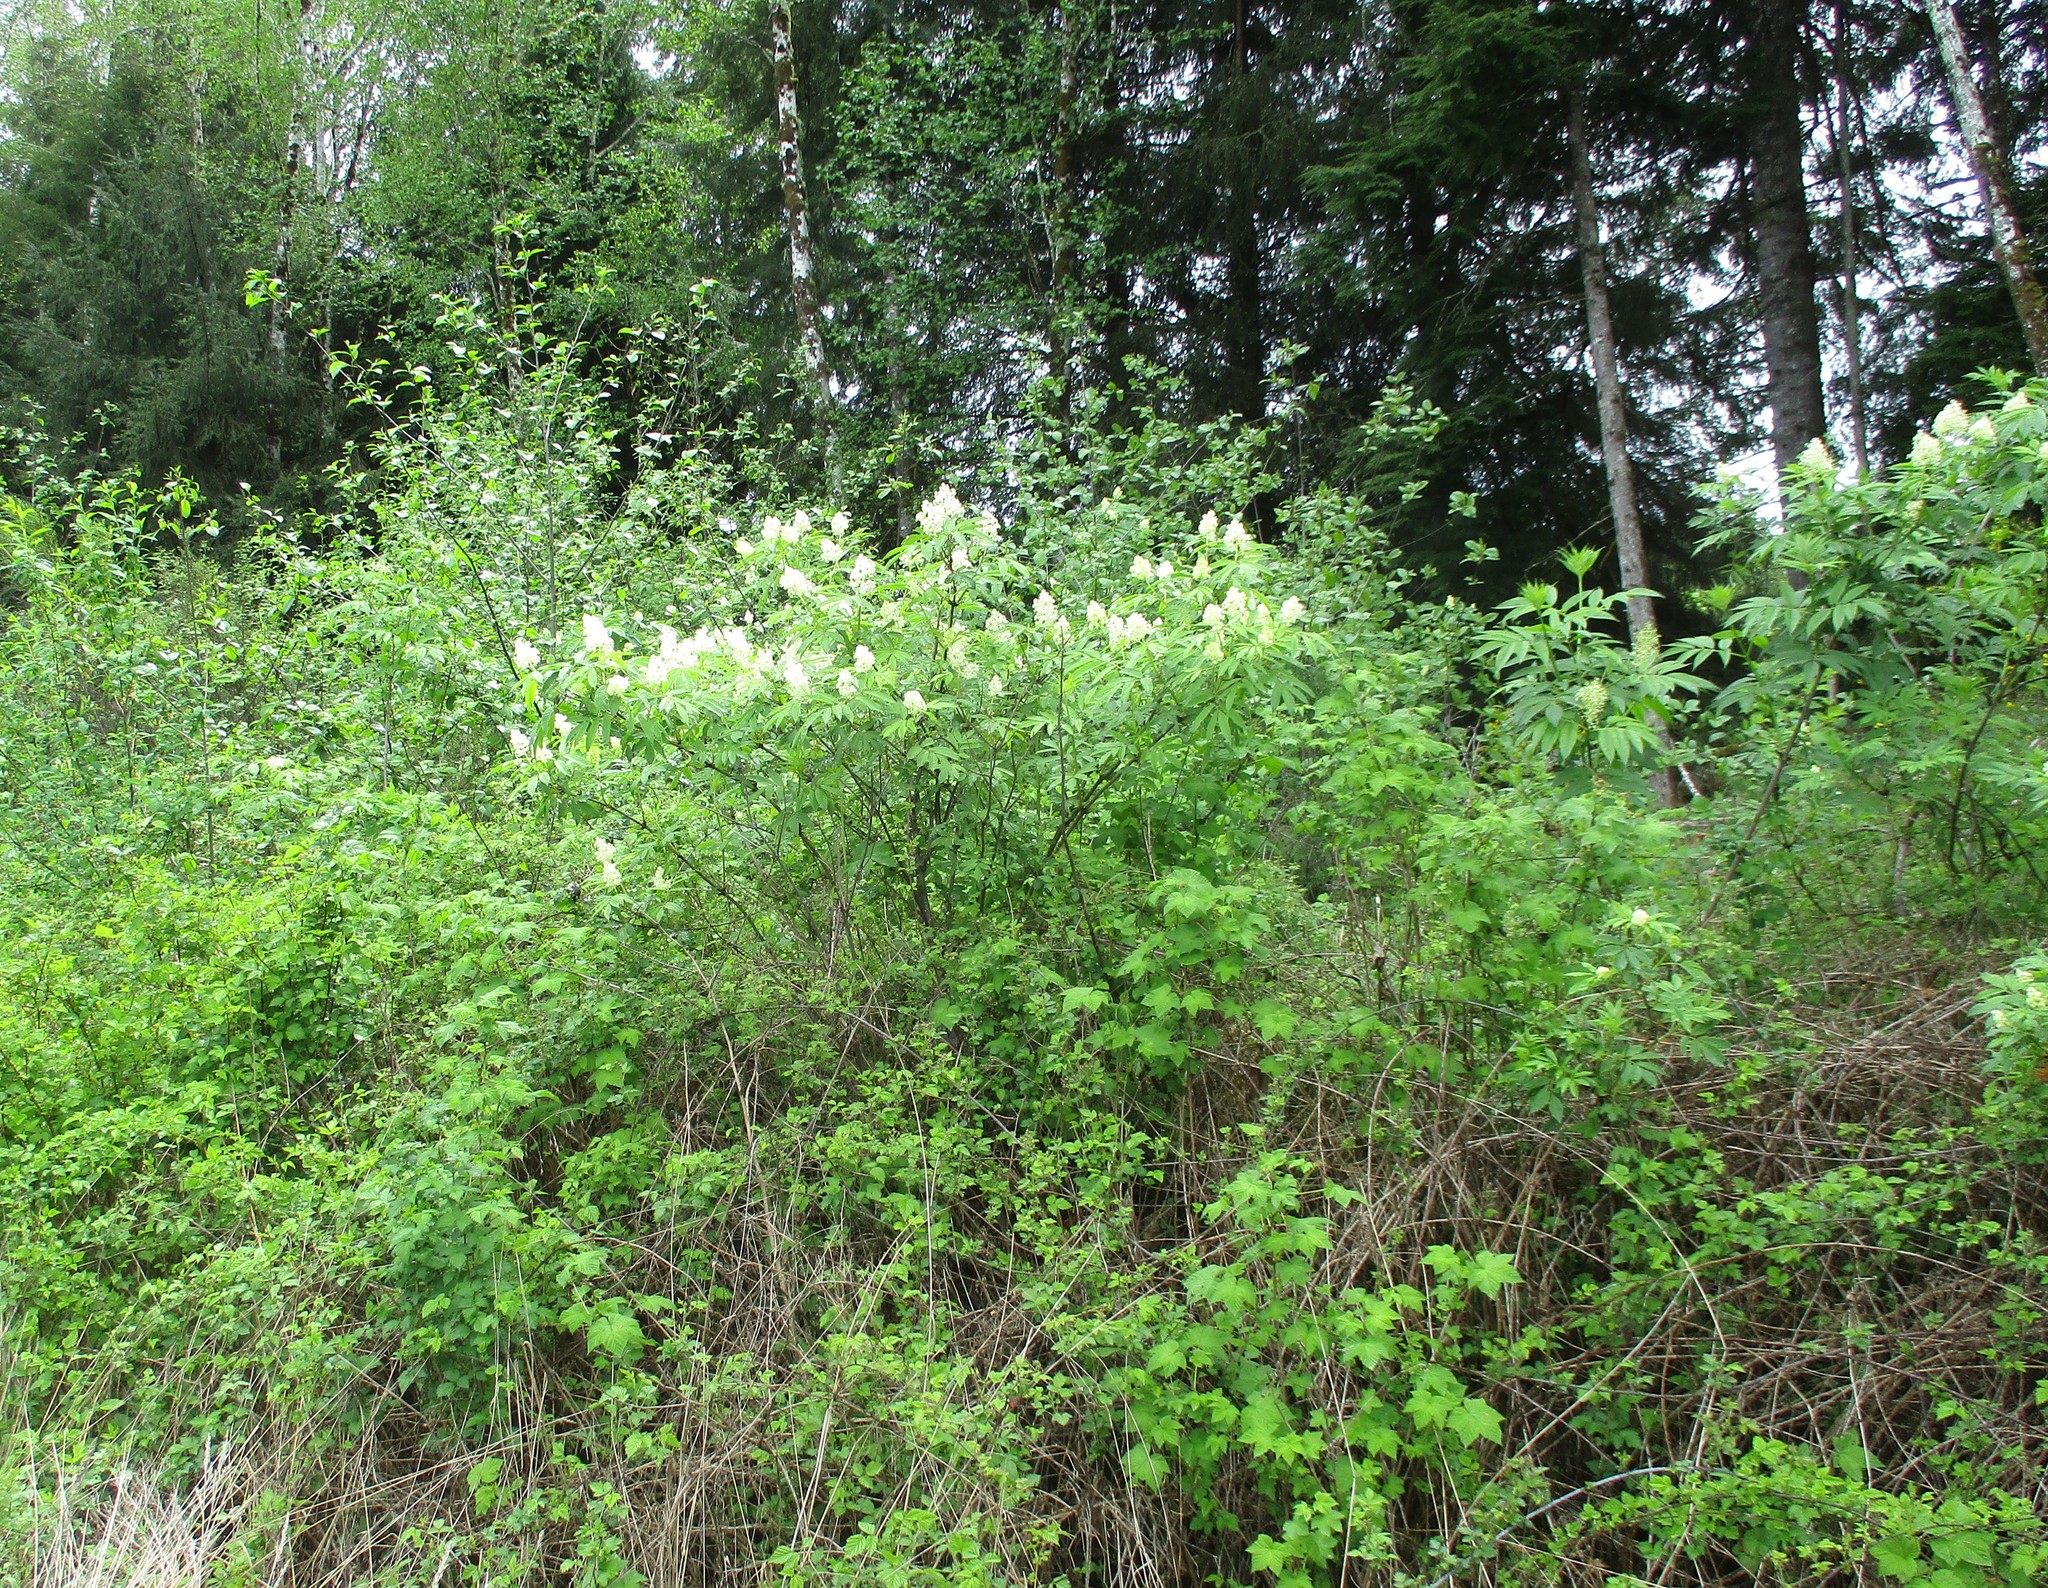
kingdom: Plantae
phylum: Tracheophyta
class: Magnoliopsida
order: Dipsacales
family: Viburnaceae
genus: Sambucus
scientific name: Sambucus racemosa
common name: Red-berried elder
